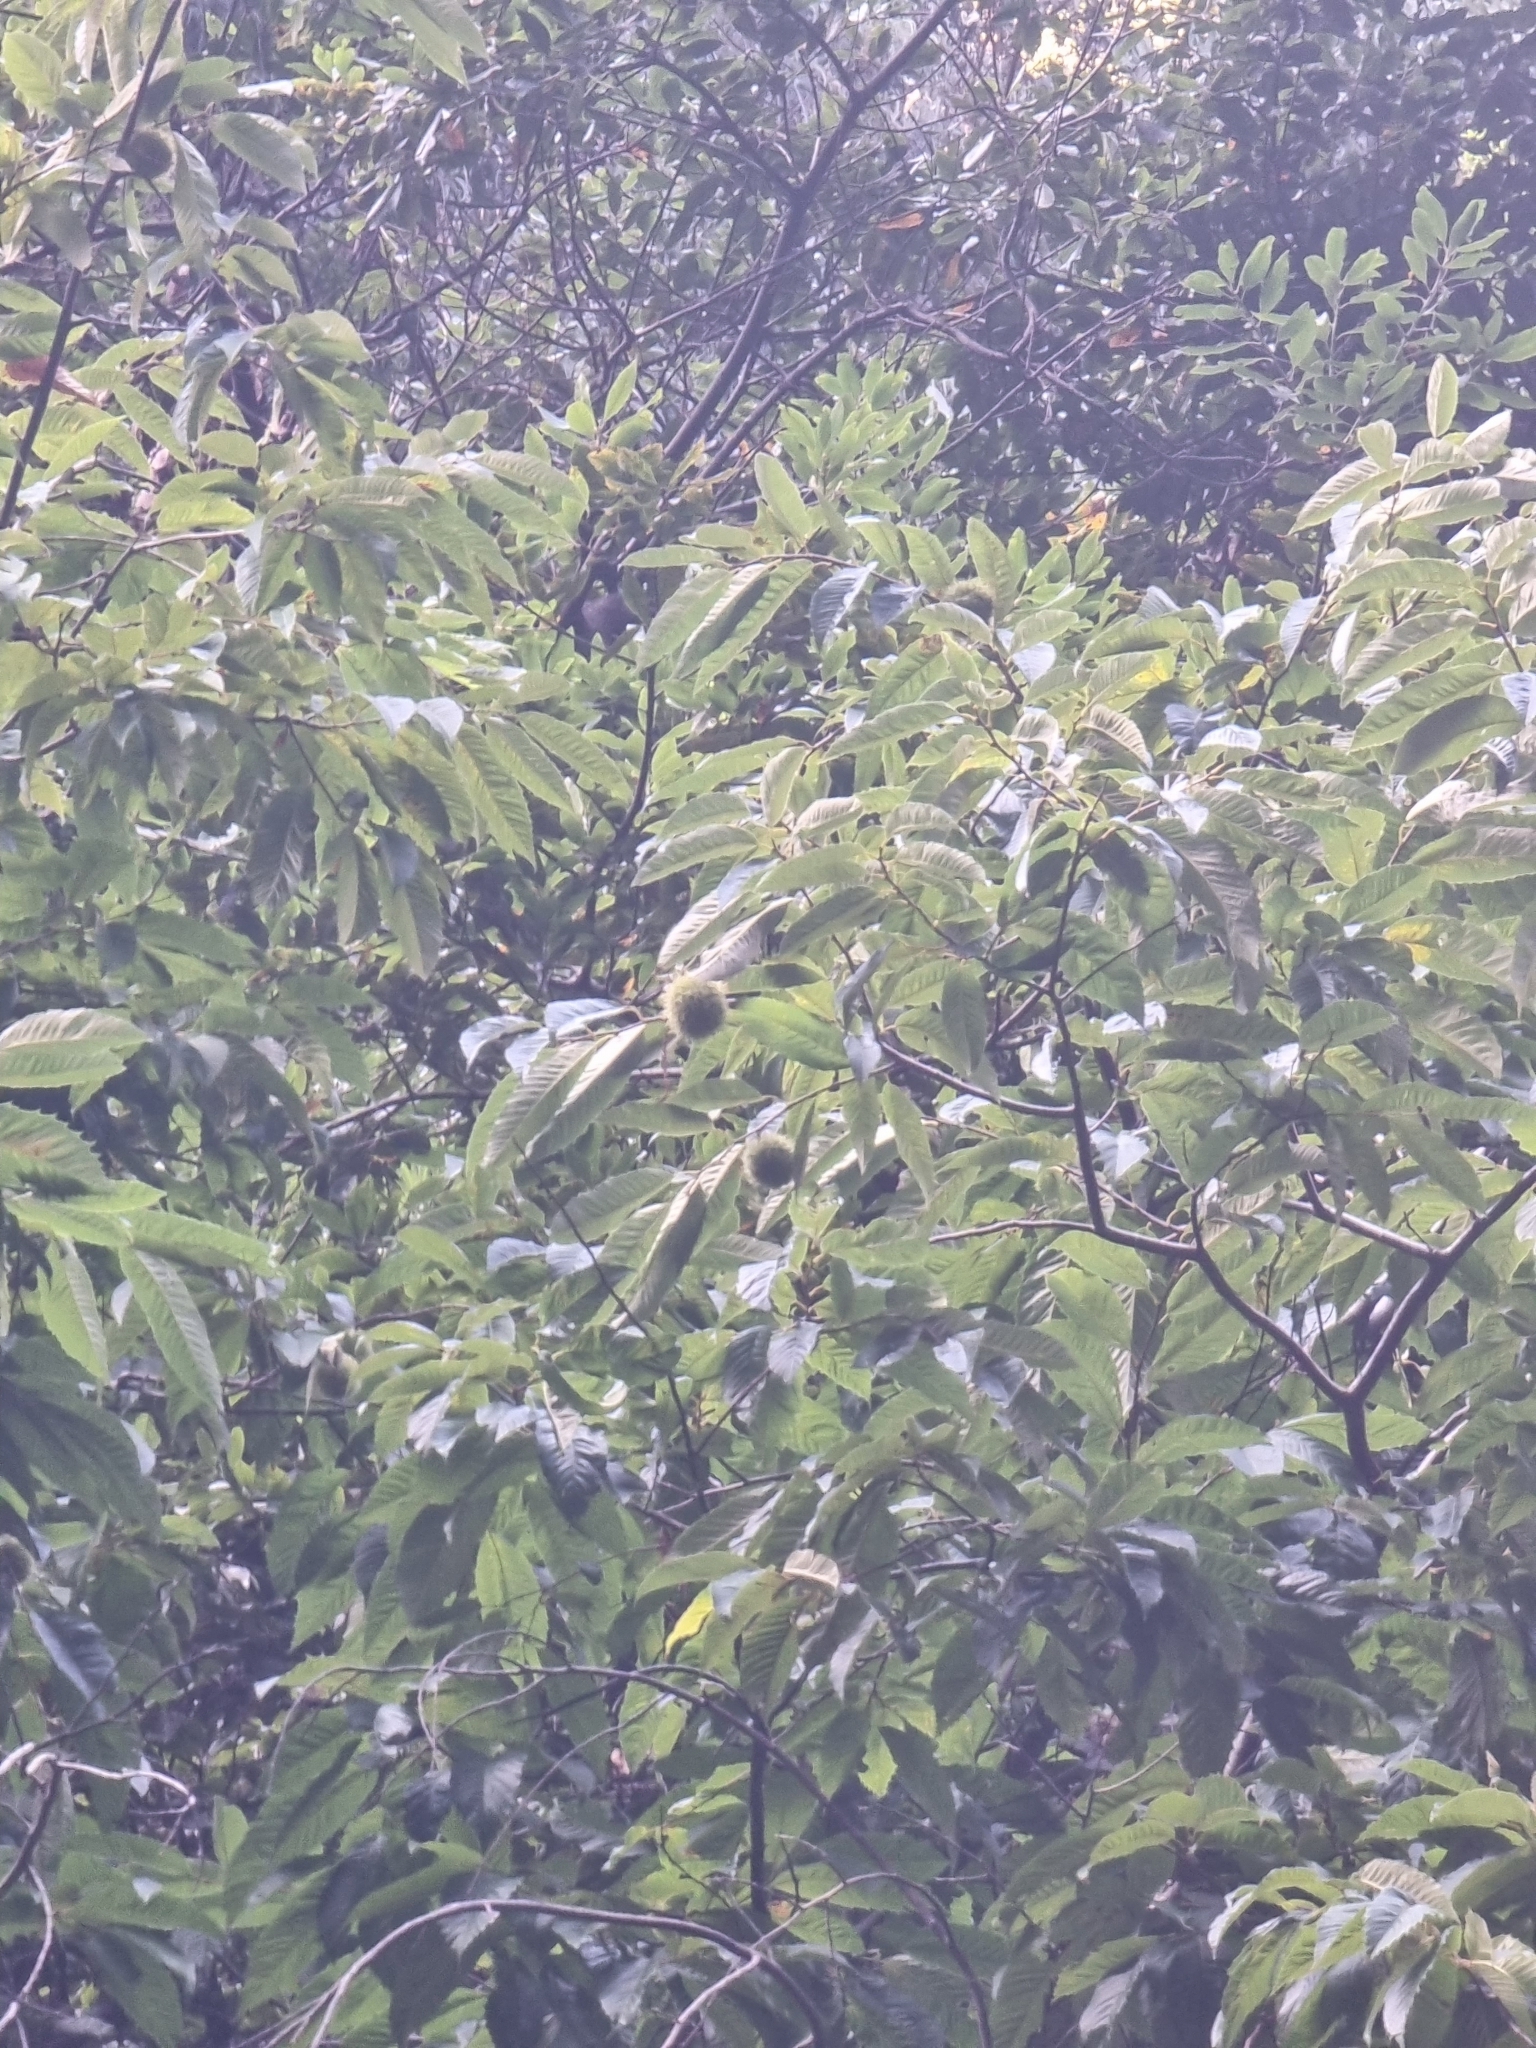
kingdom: Plantae
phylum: Tracheophyta
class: Magnoliopsida
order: Fagales
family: Fagaceae
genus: Castanea
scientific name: Castanea sativa
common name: Sweet chestnut
